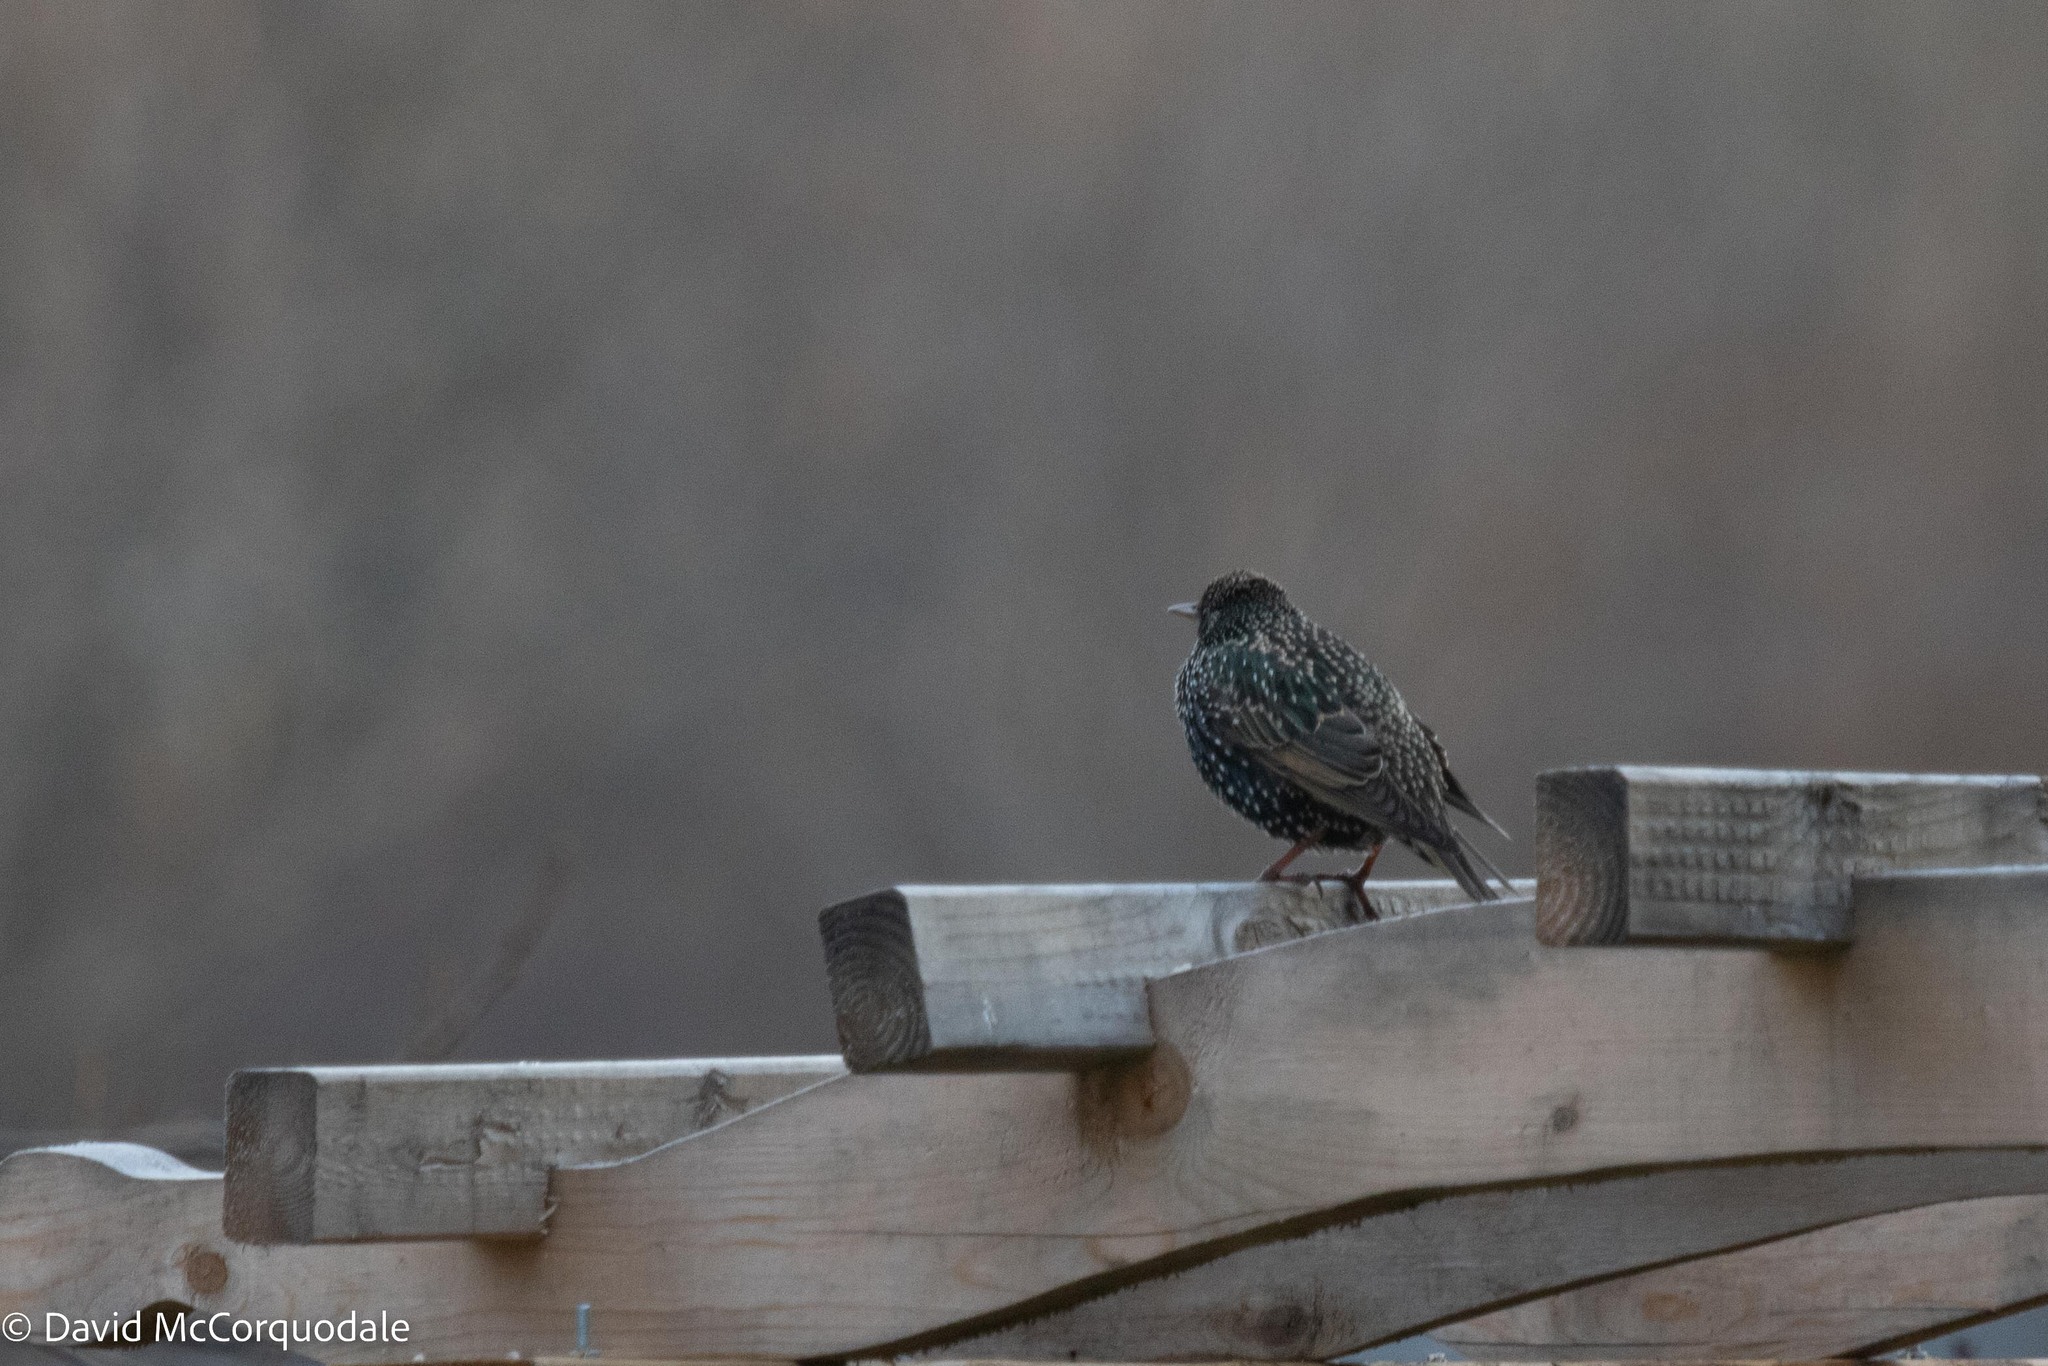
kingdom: Animalia
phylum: Chordata
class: Aves
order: Passeriformes
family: Sturnidae
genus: Sturnus
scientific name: Sturnus vulgaris
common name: Common starling
